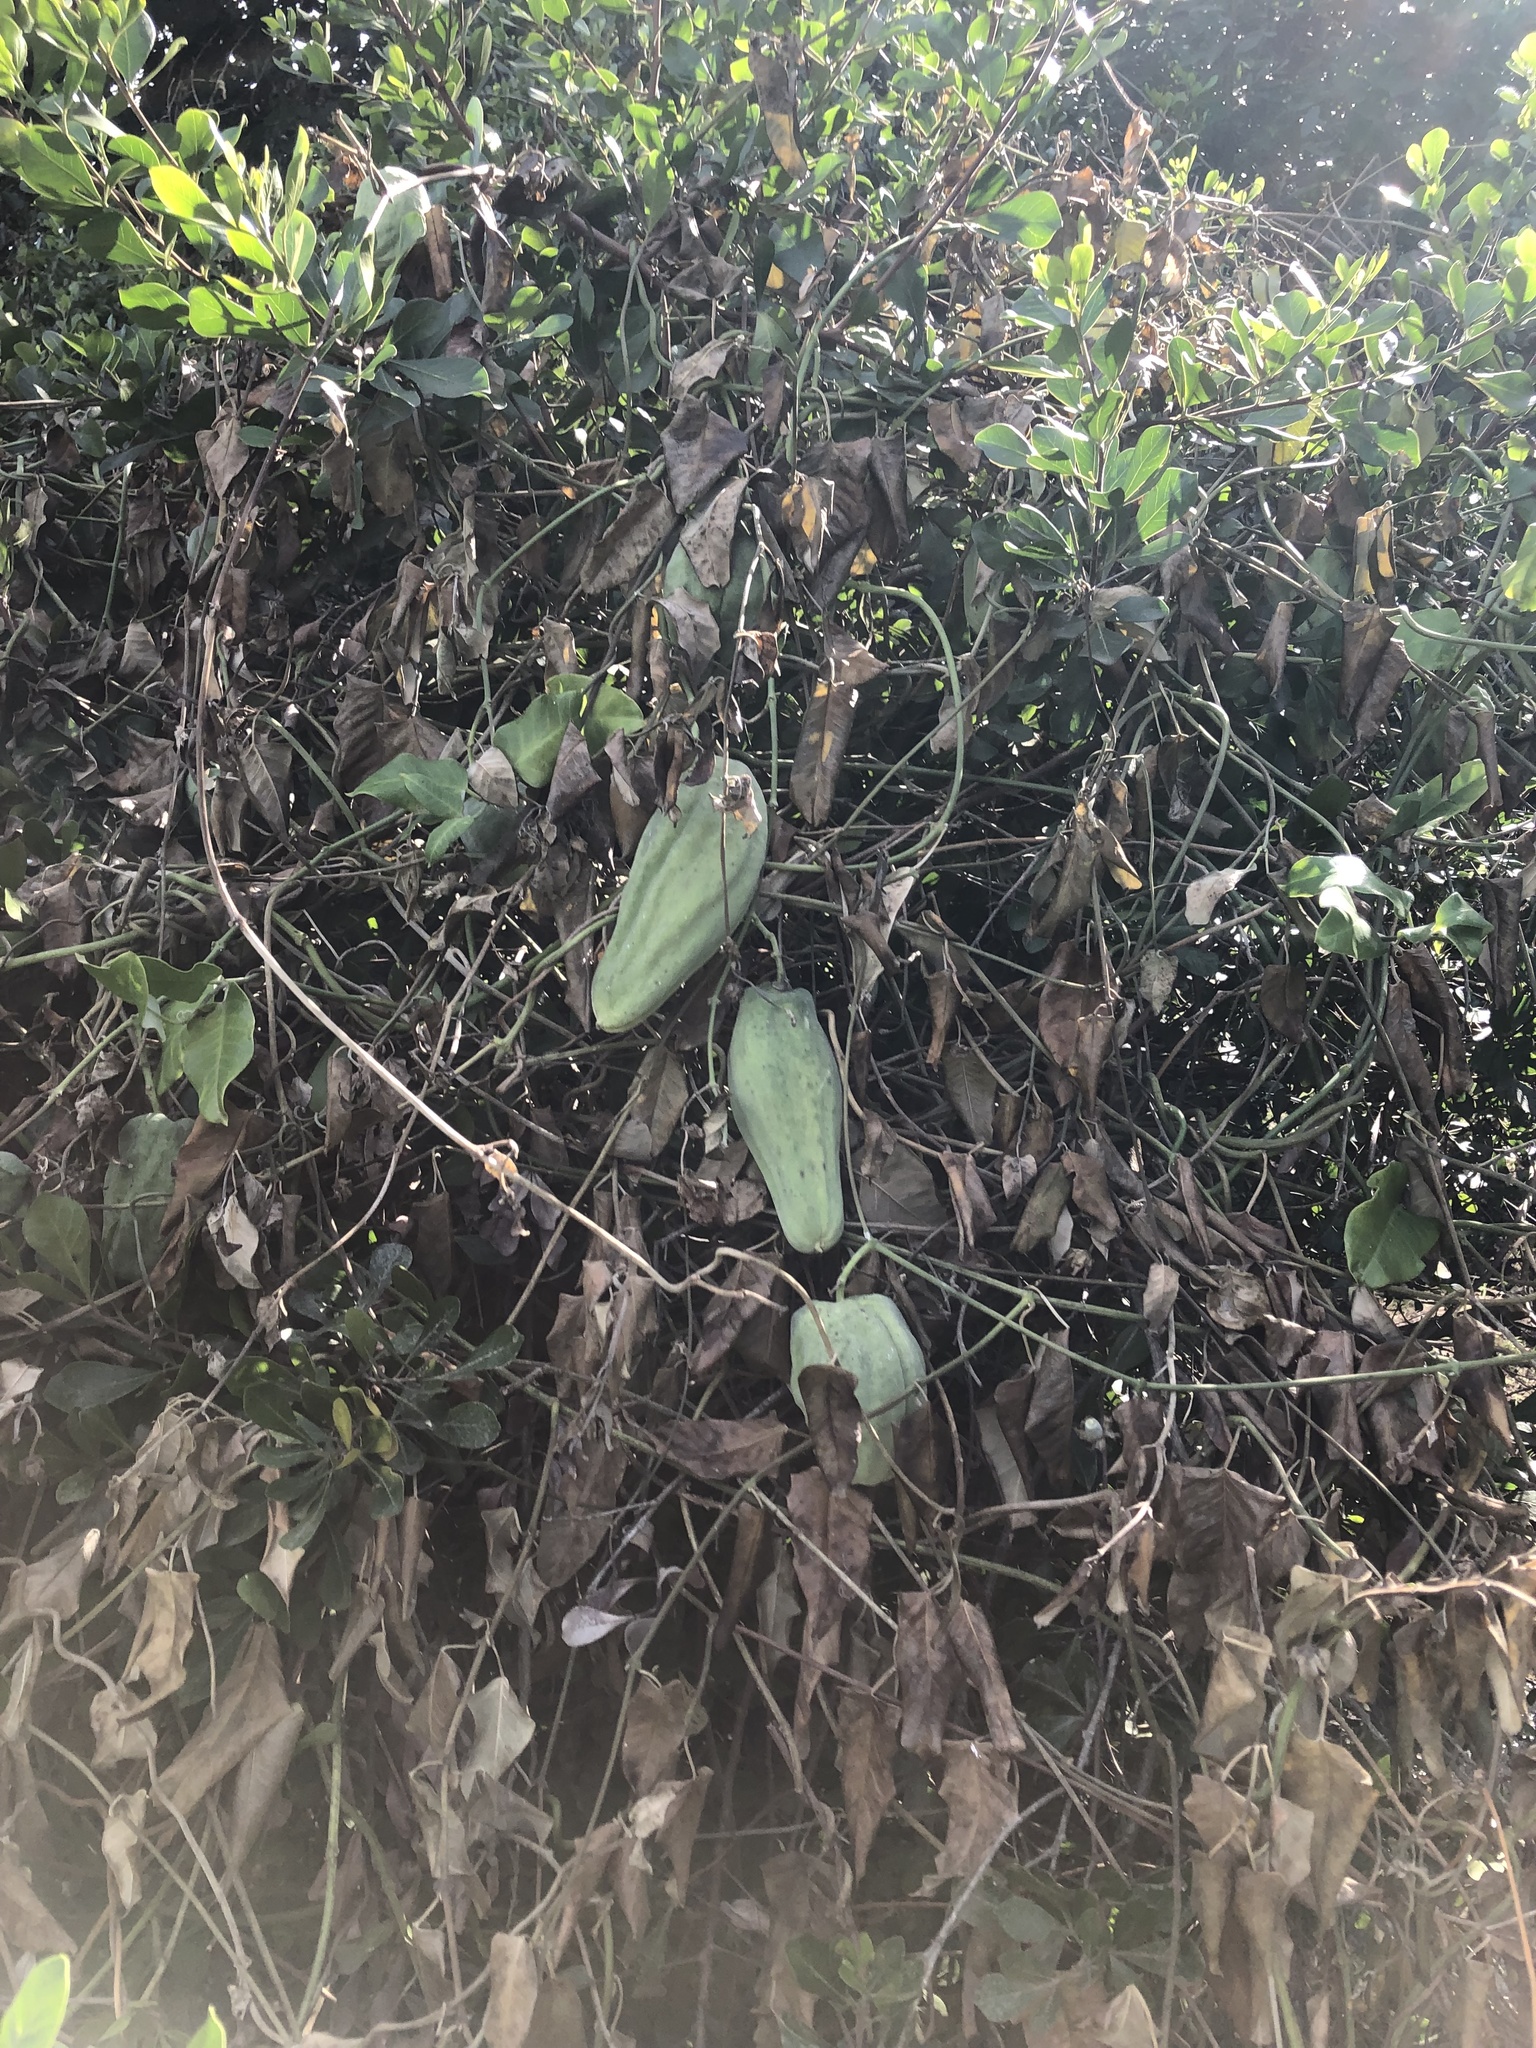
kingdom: Plantae
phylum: Tracheophyta
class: Magnoliopsida
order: Gentianales
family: Apocynaceae
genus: Araujia
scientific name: Araujia sericifera
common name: White bladderflower
